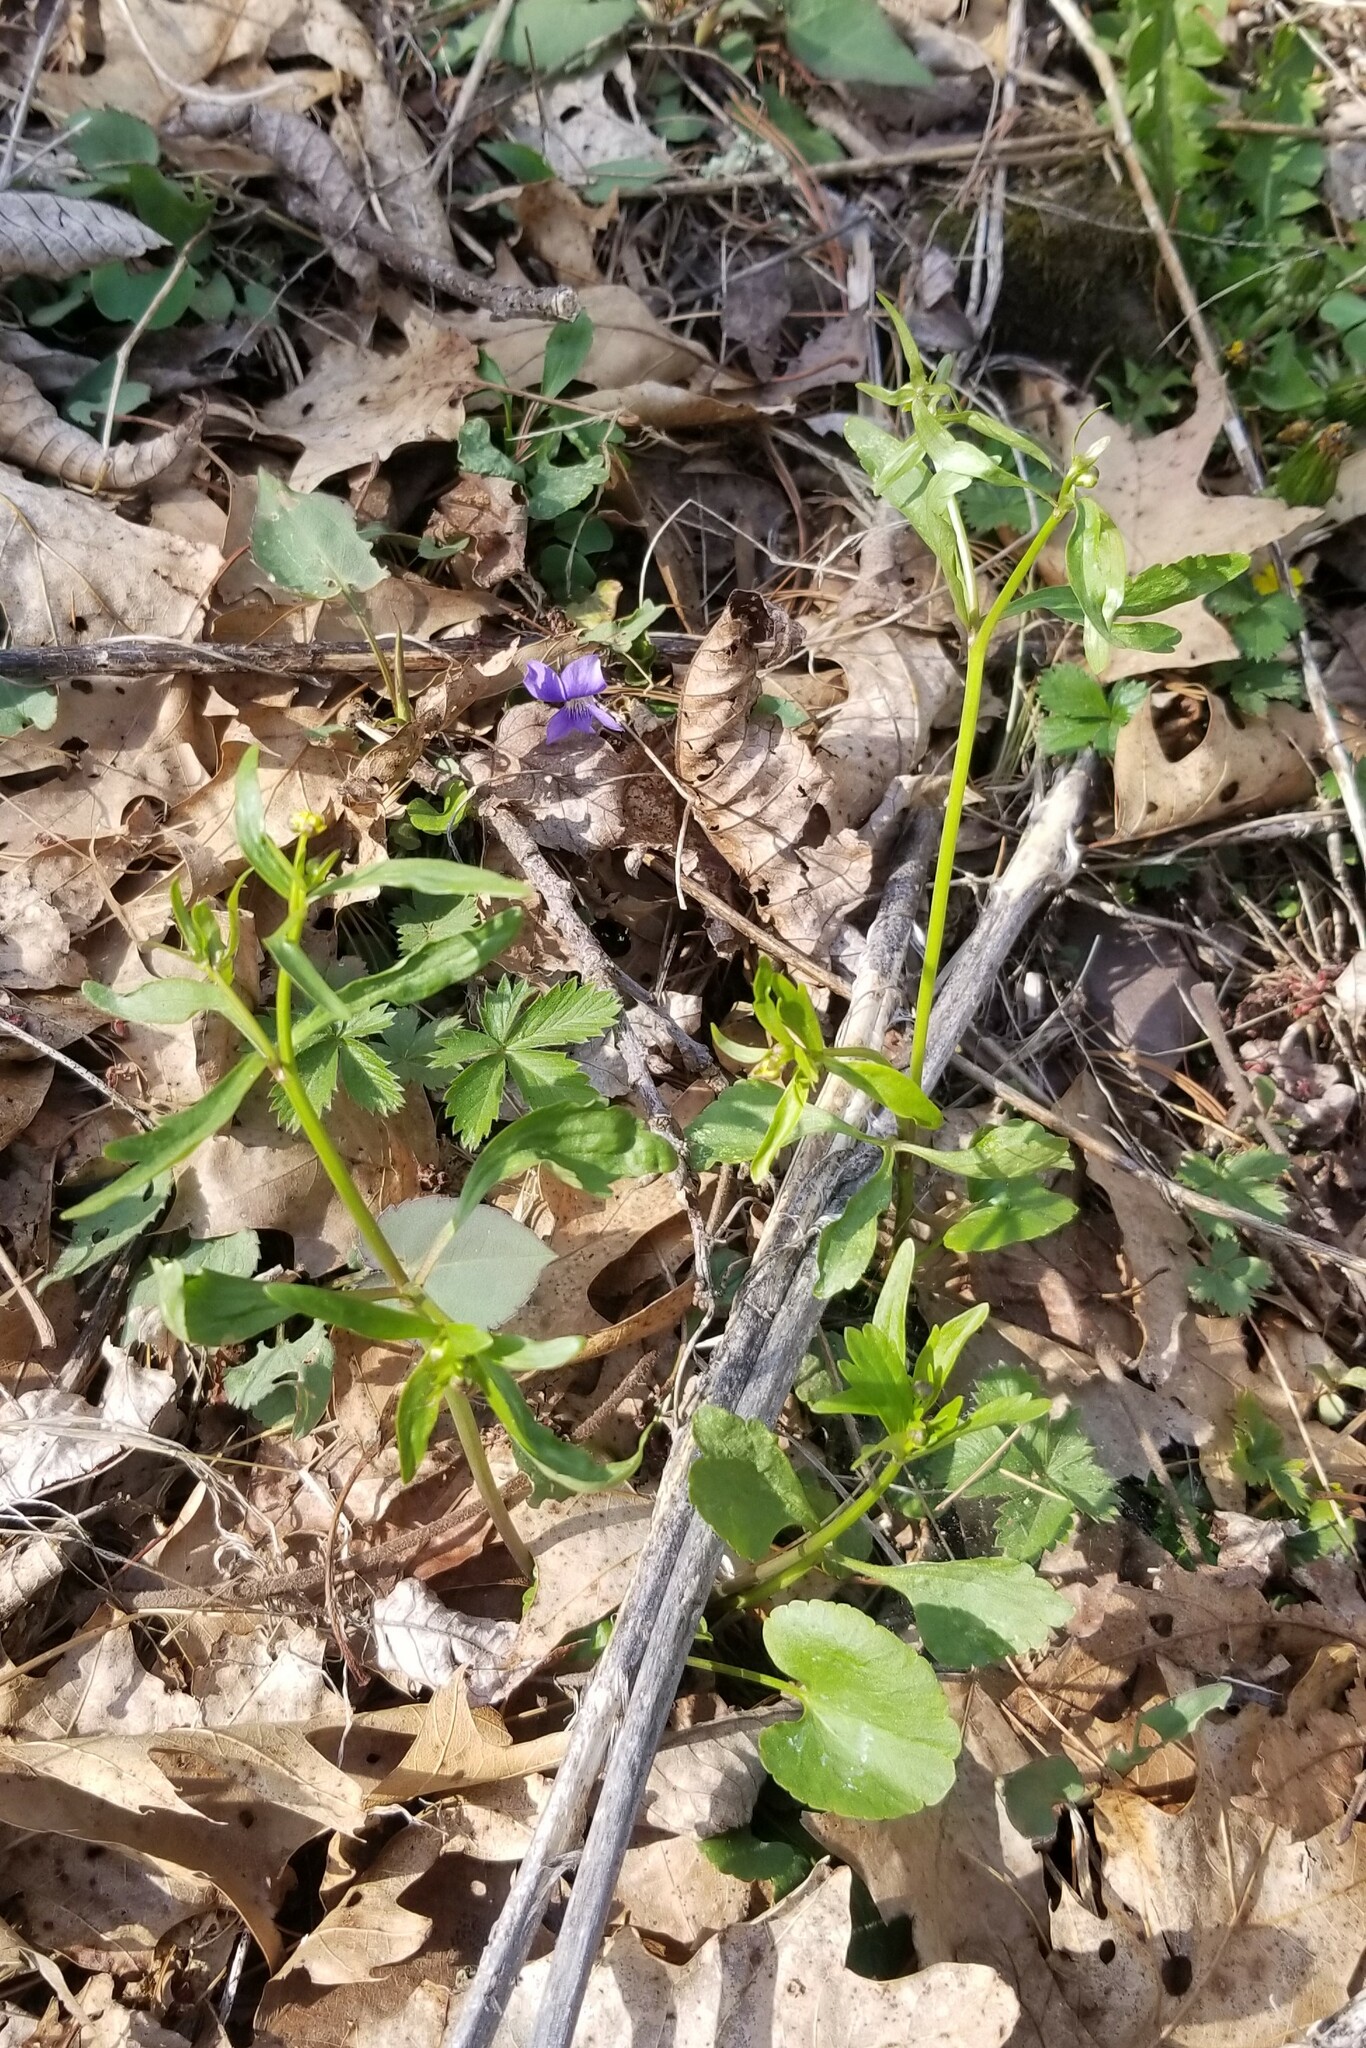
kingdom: Plantae
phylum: Tracheophyta
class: Magnoliopsida
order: Ranunculales
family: Ranunculaceae
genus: Ranunculus
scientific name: Ranunculus abortivus
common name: Early wood buttercup
